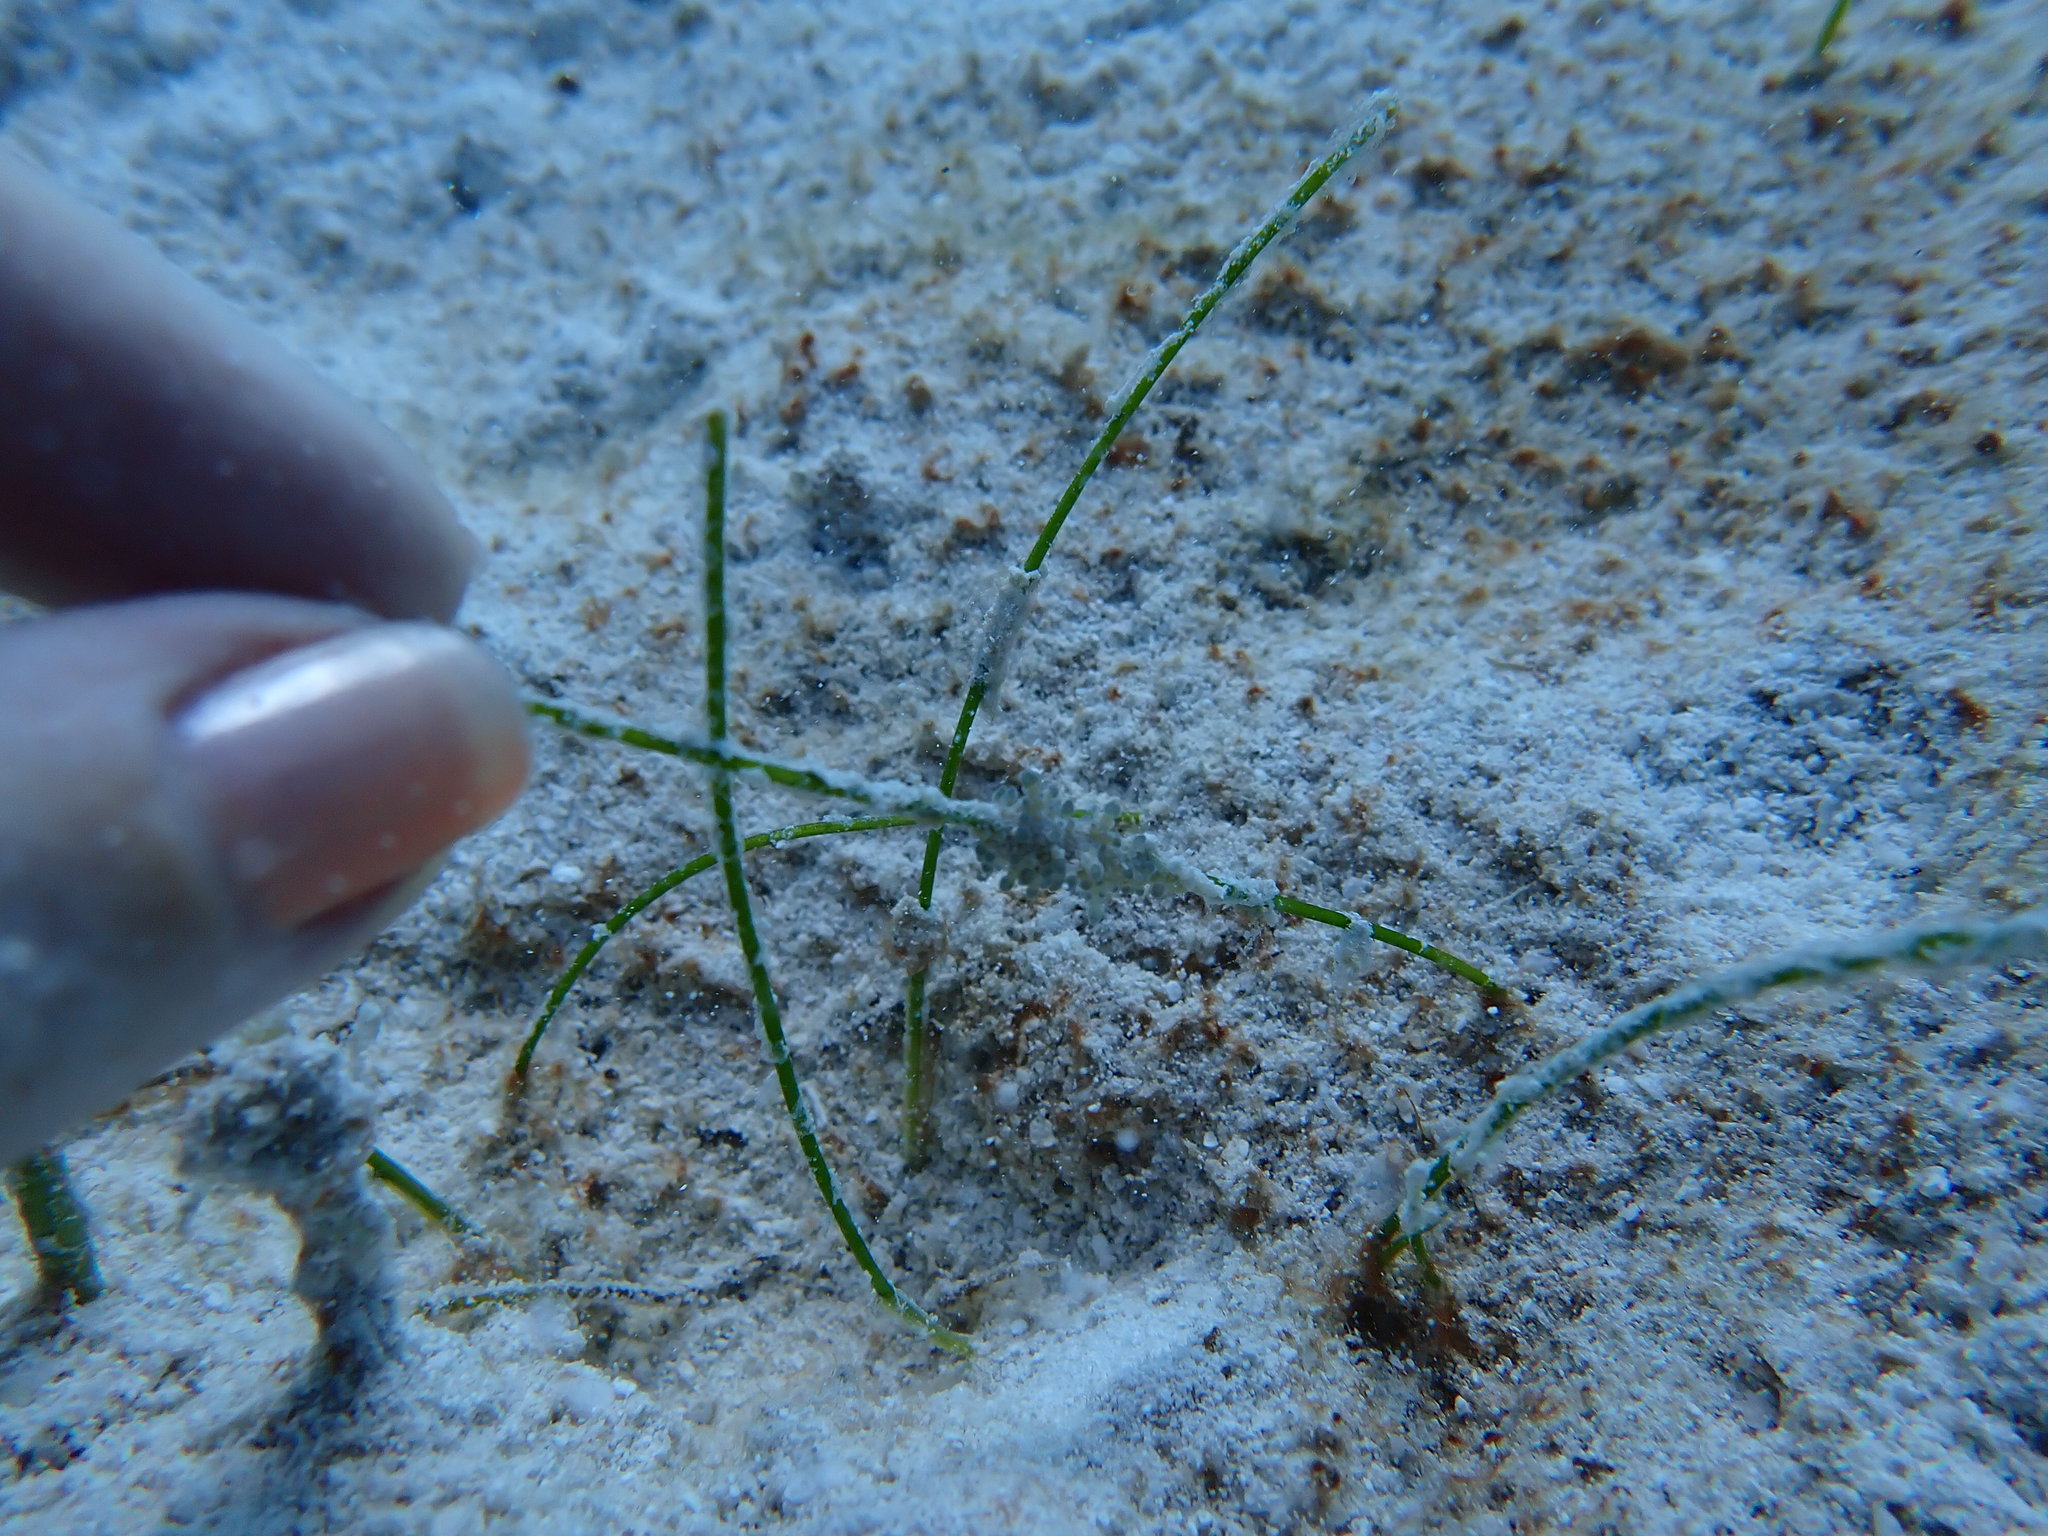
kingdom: Animalia
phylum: Cnidaria
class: Anthozoa
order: Actiniaria
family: Boloceroididae
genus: Bunodeopsis
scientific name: Bunodeopsis globulifera
